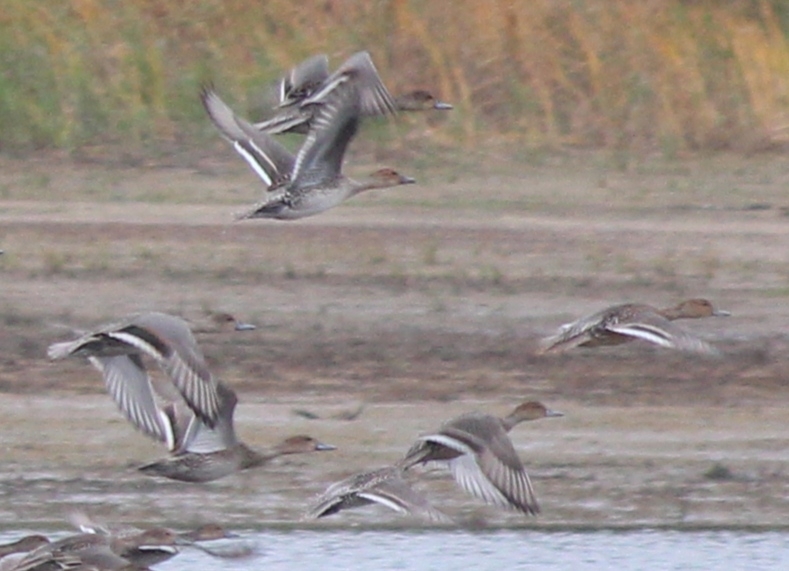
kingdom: Animalia
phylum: Chordata
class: Aves
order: Anseriformes
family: Anatidae
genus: Anas
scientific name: Anas acuta
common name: Northern pintail
